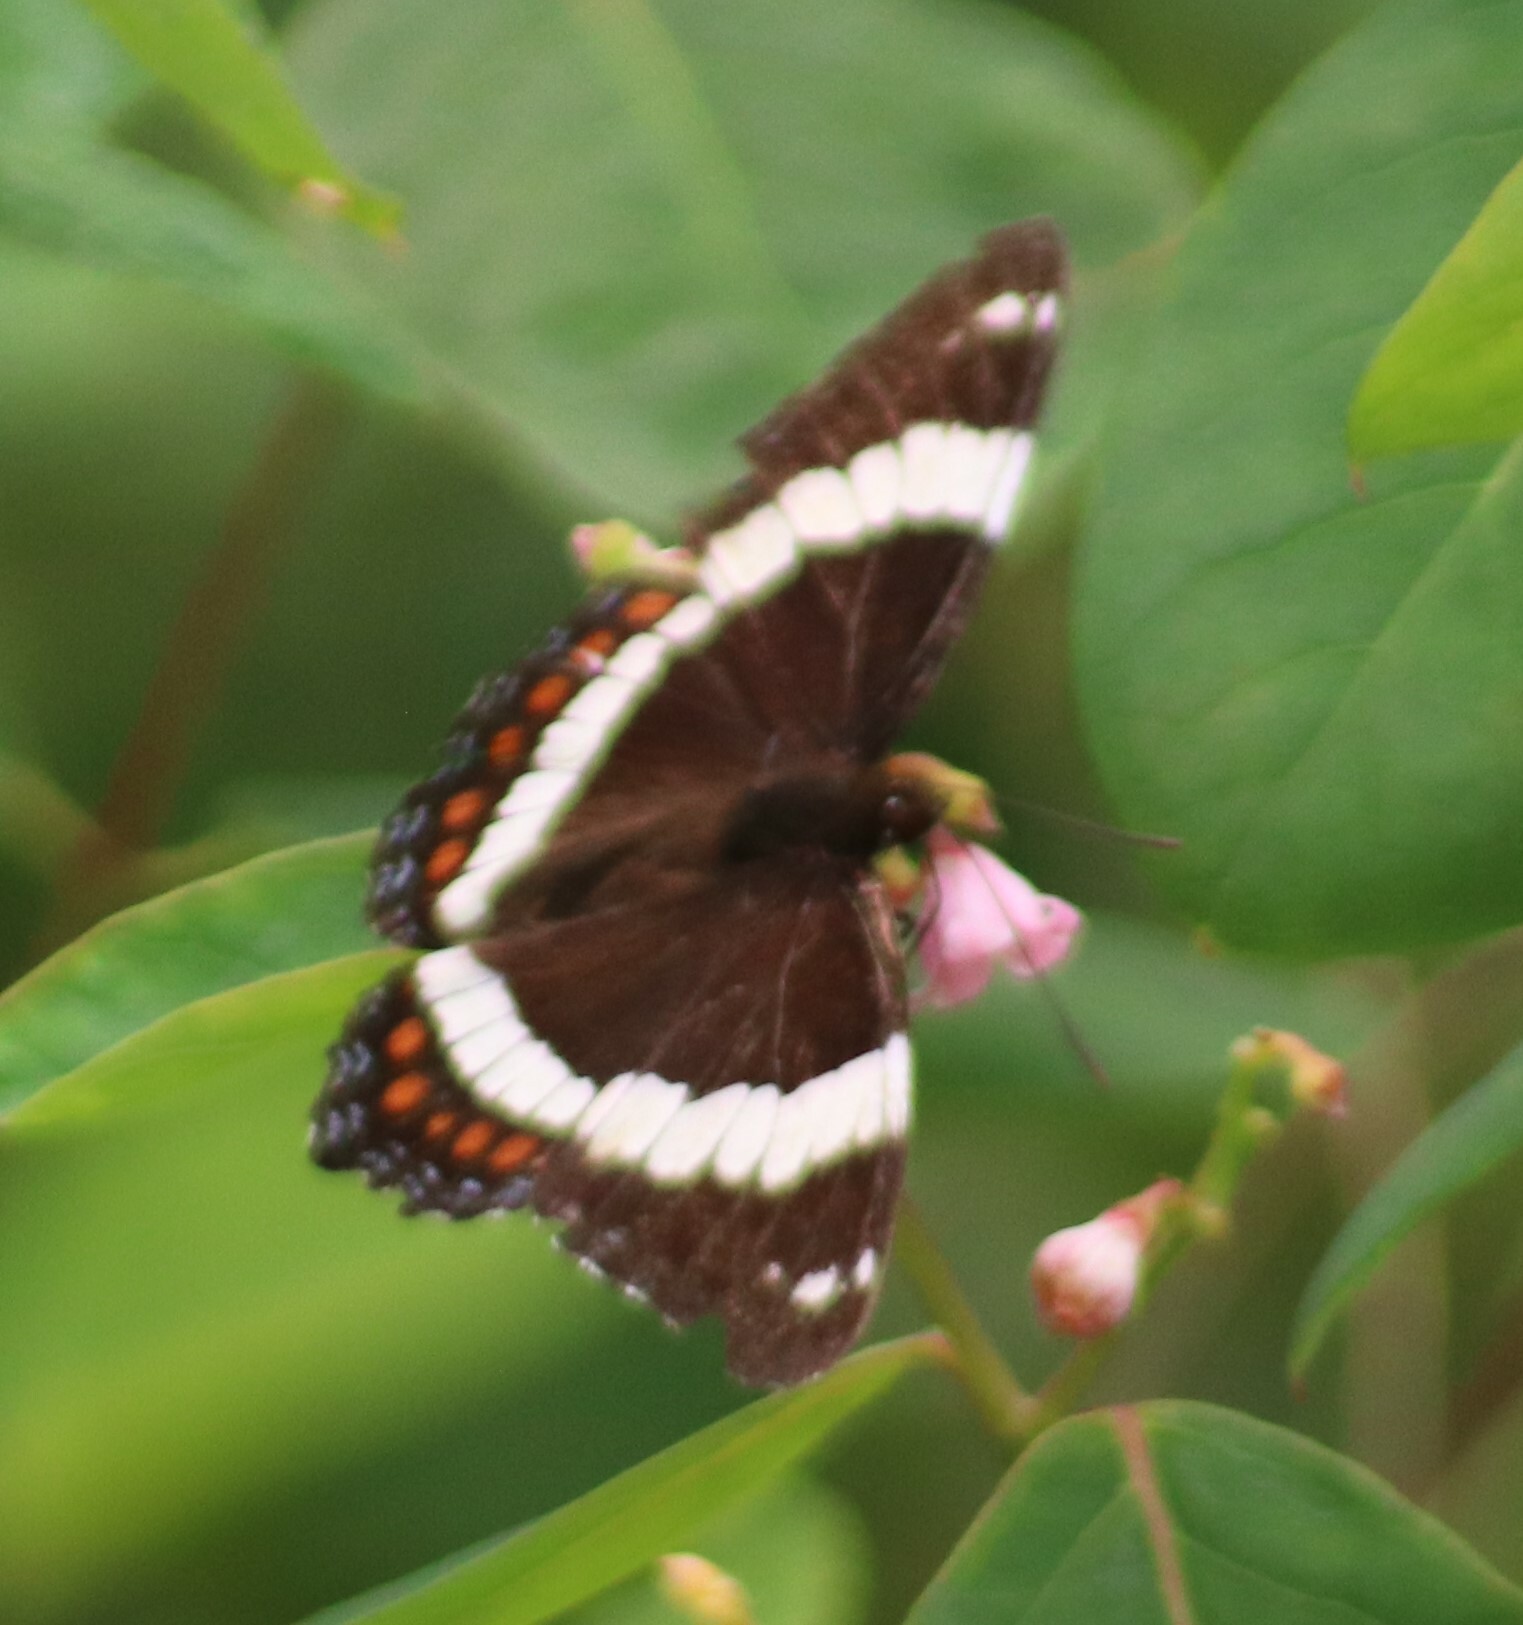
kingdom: Animalia
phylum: Arthropoda
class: Insecta
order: Lepidoptera
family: Nymphalidae
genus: Limenitis
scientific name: Limenitis arthemis
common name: Red-spotted admiral
